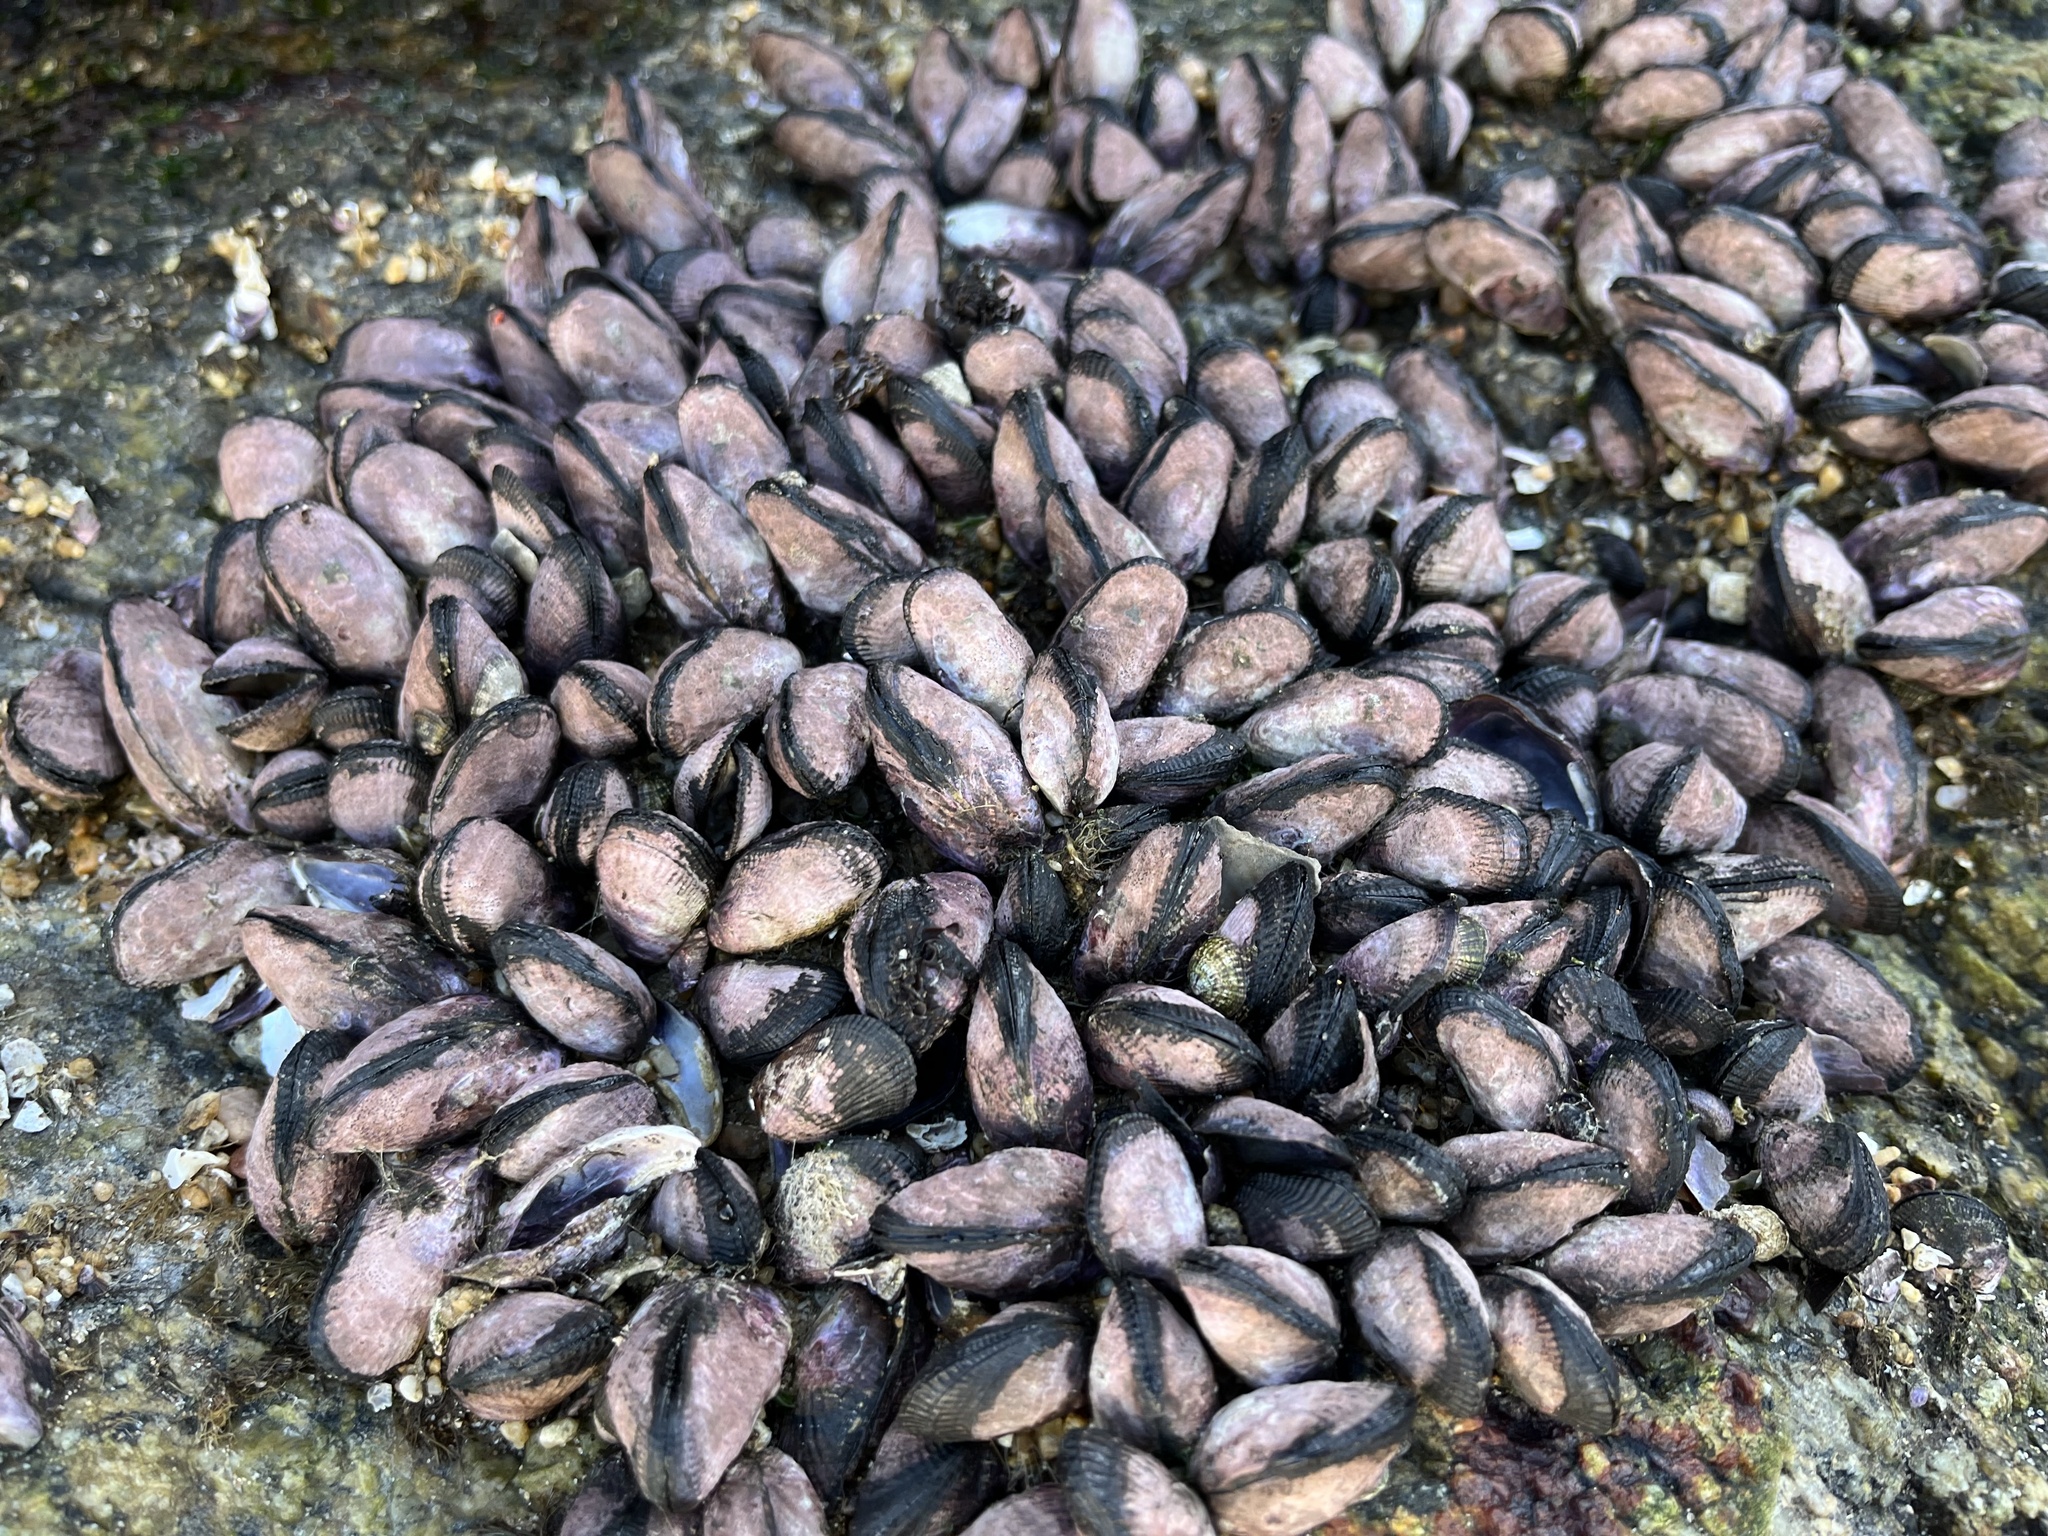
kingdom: Animalia
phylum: Mollusca
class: Bivalvia
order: Mytilida
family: Mytilidae
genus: Perumytilus
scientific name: Perumytilus purpuratus
